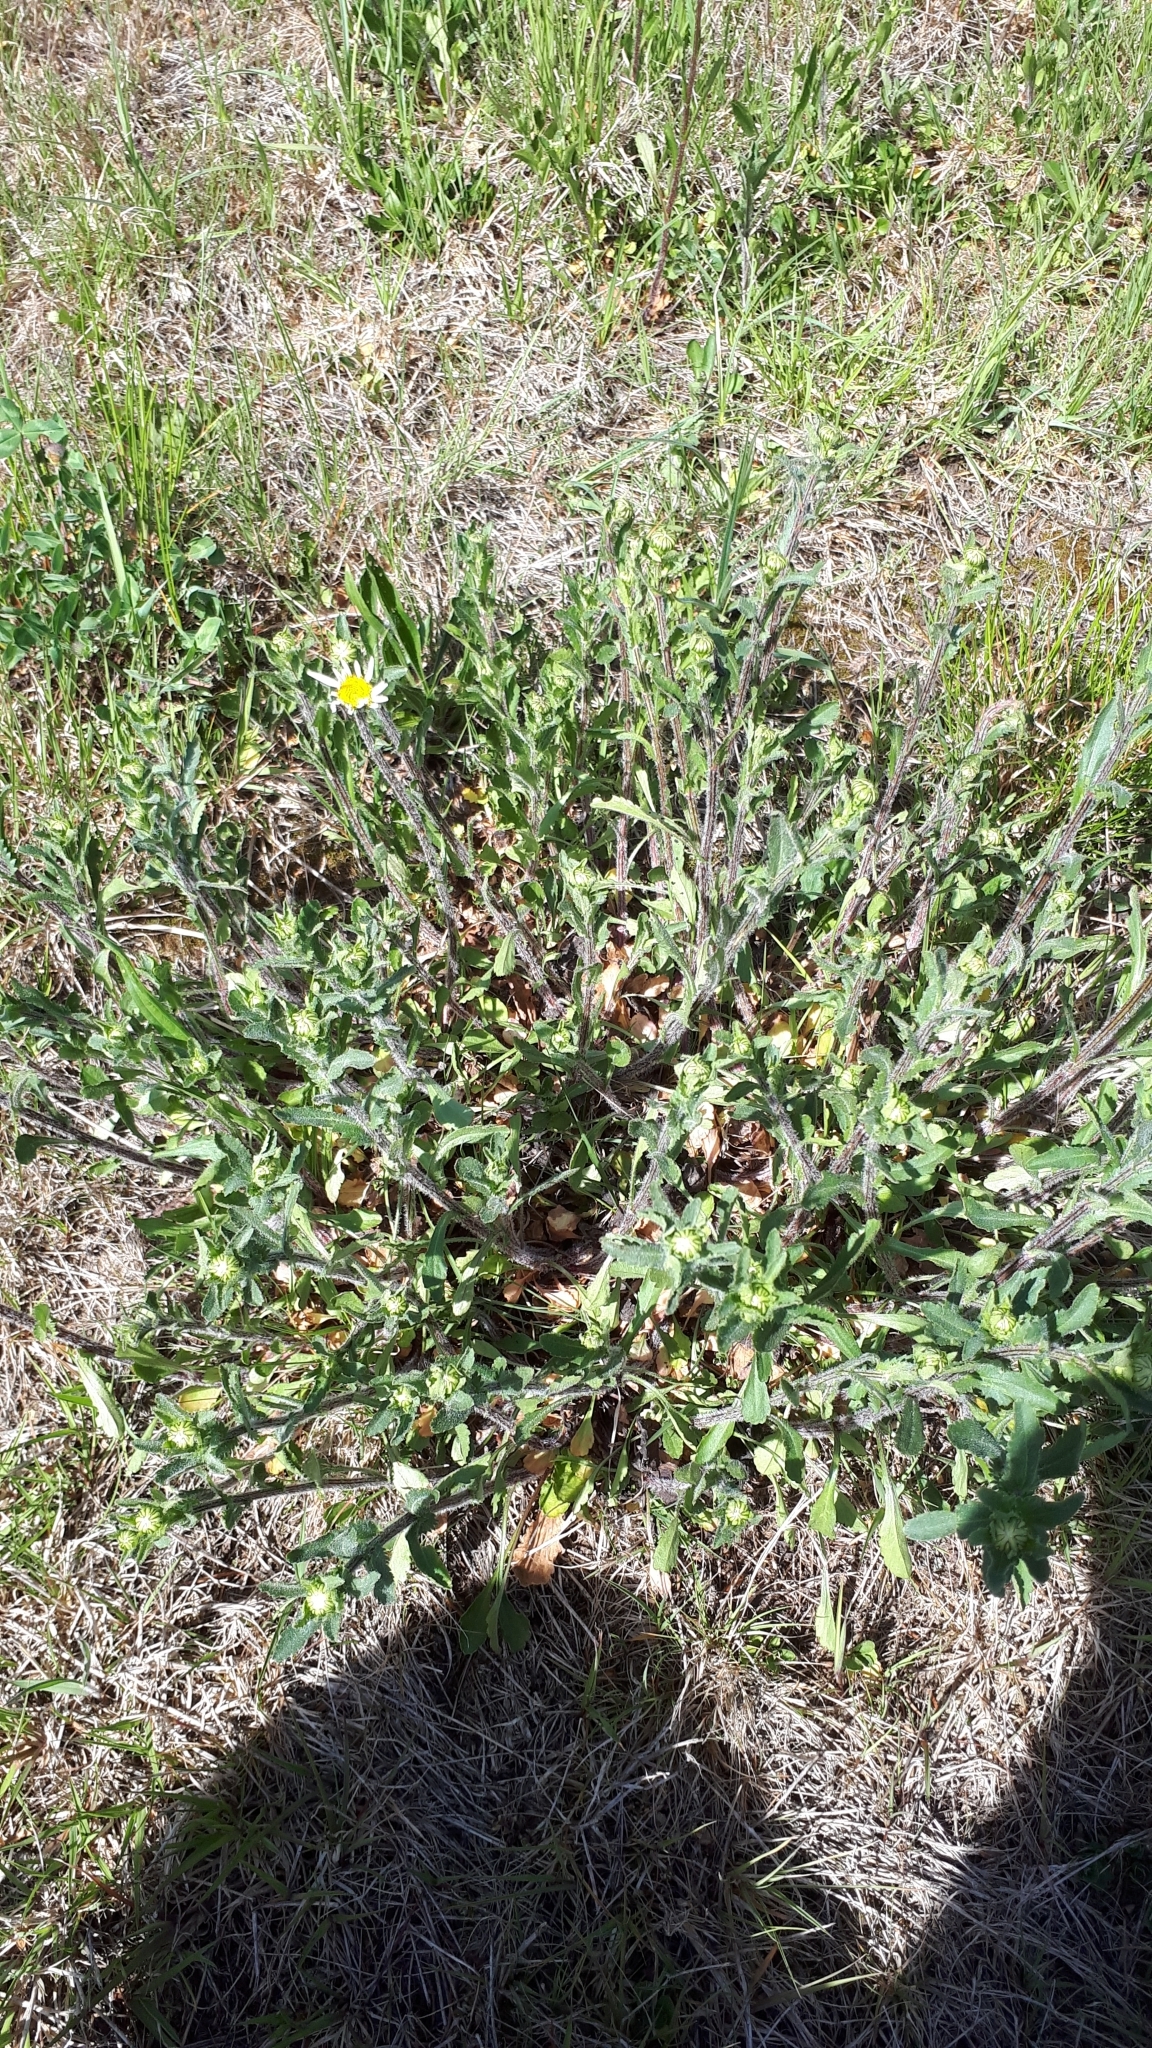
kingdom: Plantae
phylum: Tracheophyta
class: Magnoliopsida
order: Asterales
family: Asteraceae
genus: Leucanthemum
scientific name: Leucanthemum ircutianum
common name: Daisy
